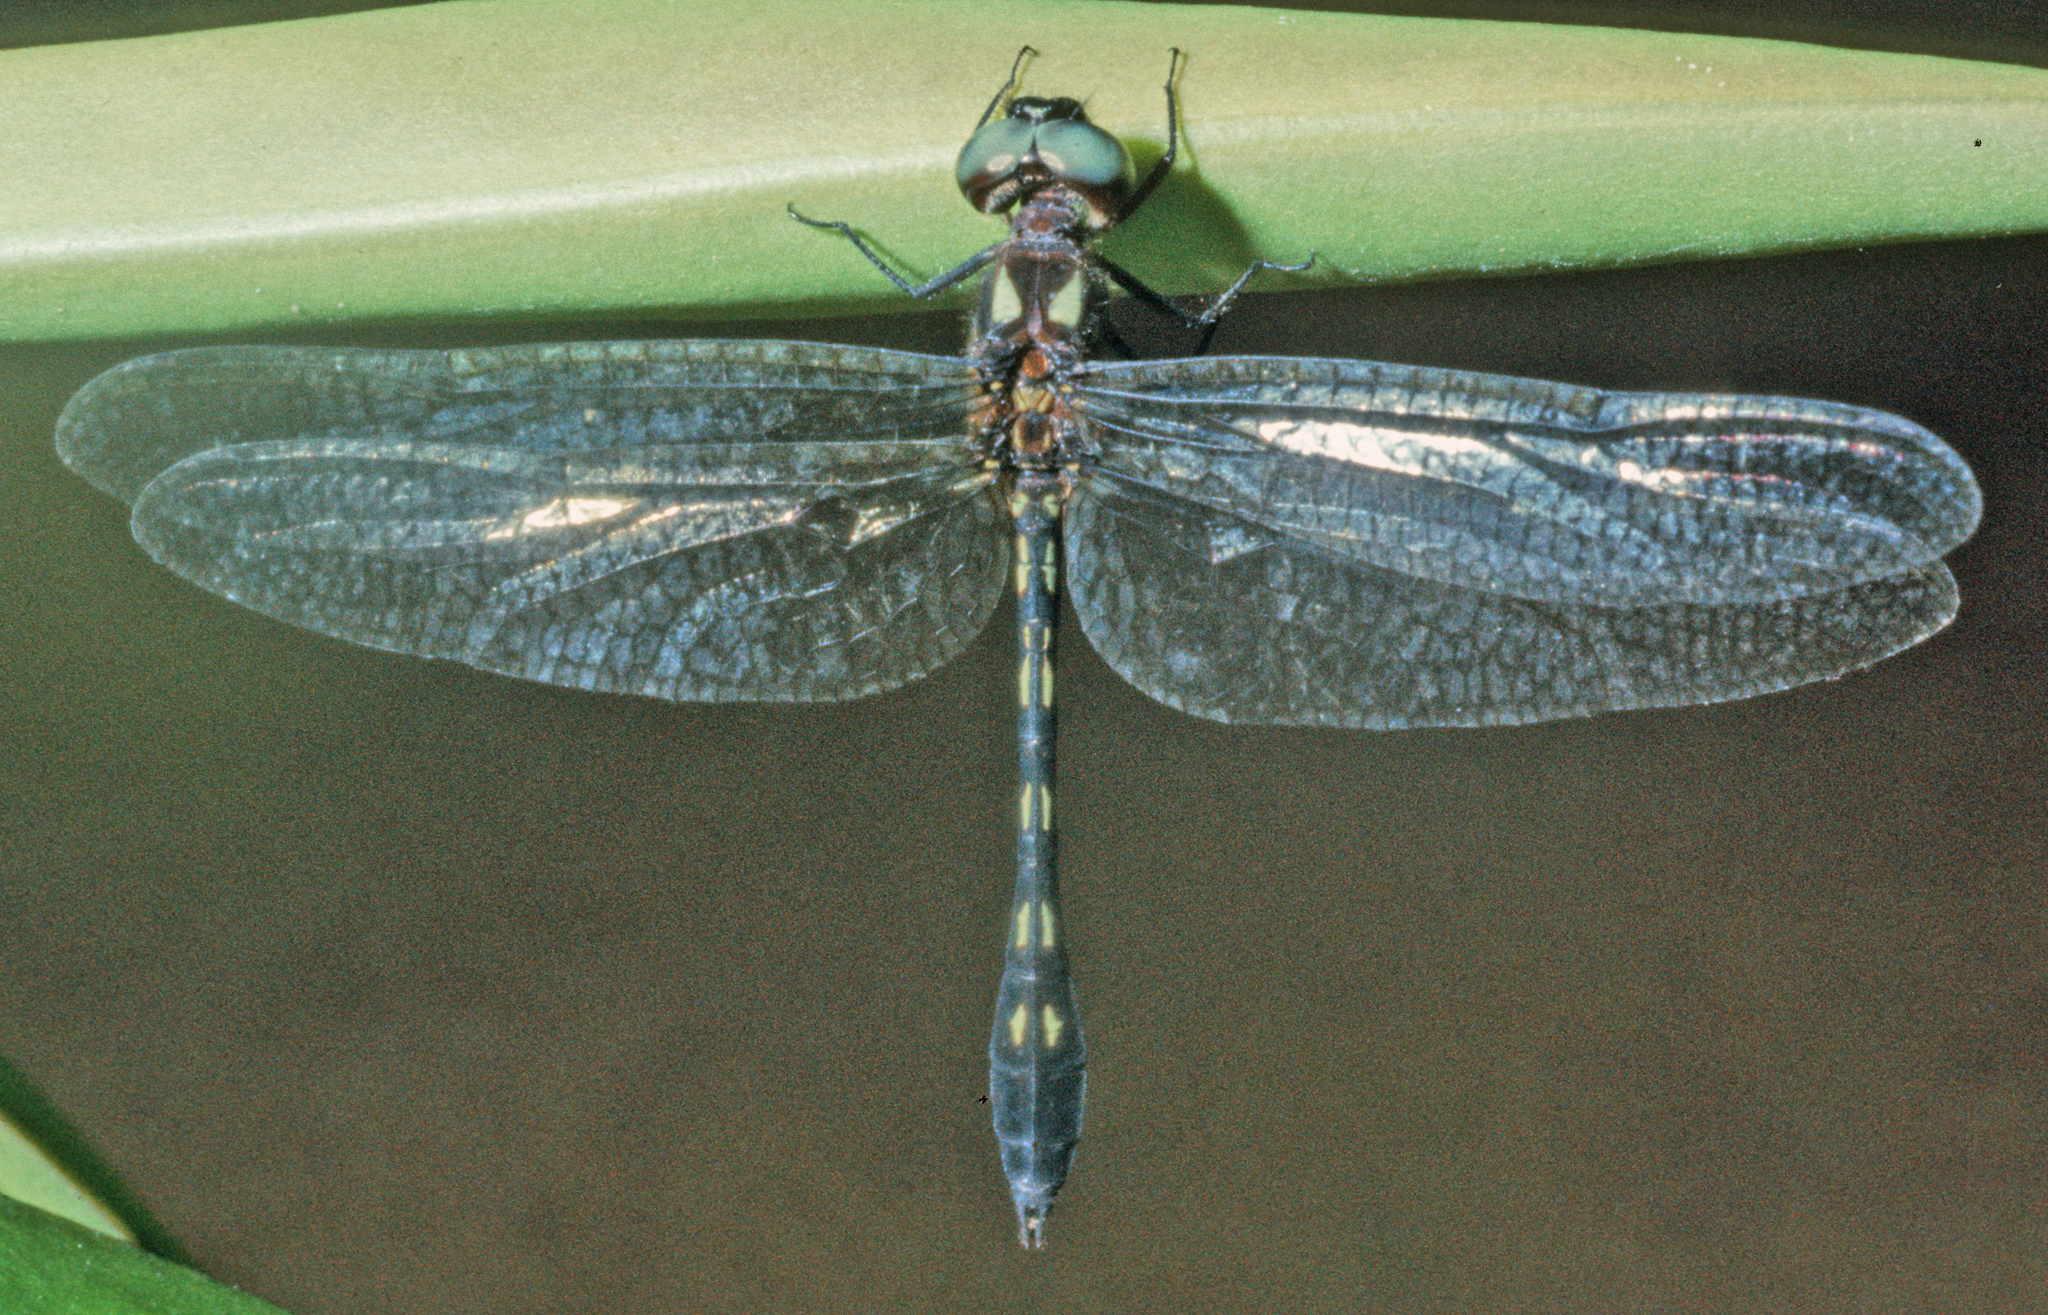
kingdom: Animalia
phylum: Arthropoda
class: Insecta
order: Odonata
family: Libellulidae
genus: Macrothemis
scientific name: Macrothemis delia
